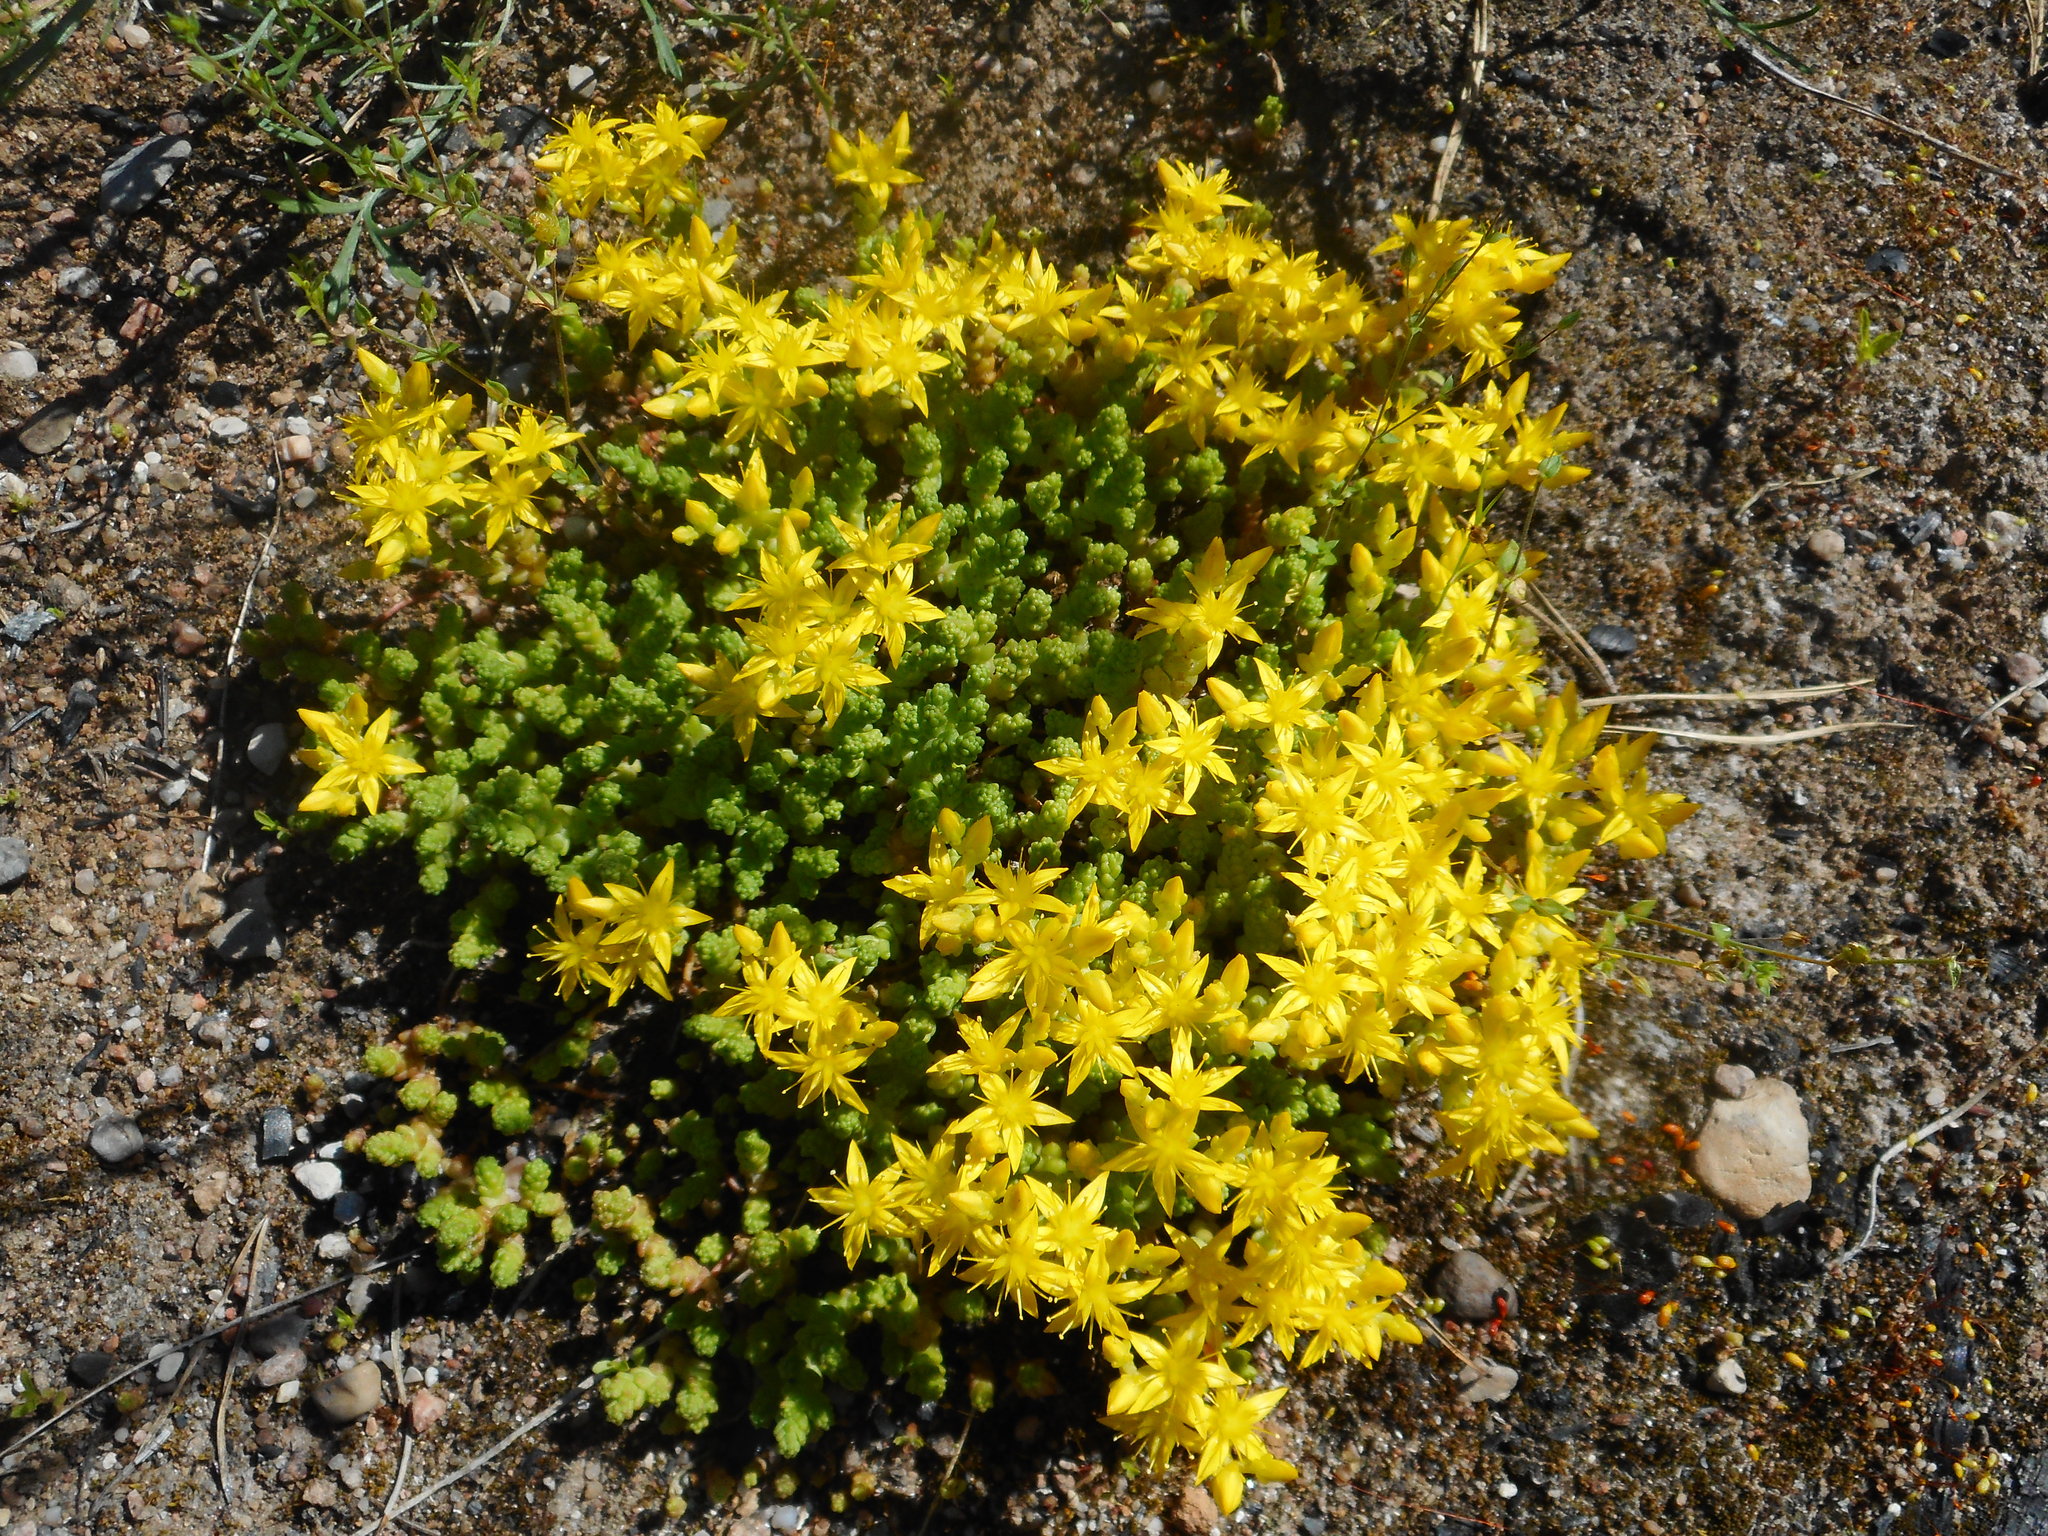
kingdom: Plantae
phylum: Tracheophyta
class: Magnoliopsida
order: Saxifragales
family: Crassulaceae
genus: Sedum
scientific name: Sedum acre
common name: Biting stonecrop
